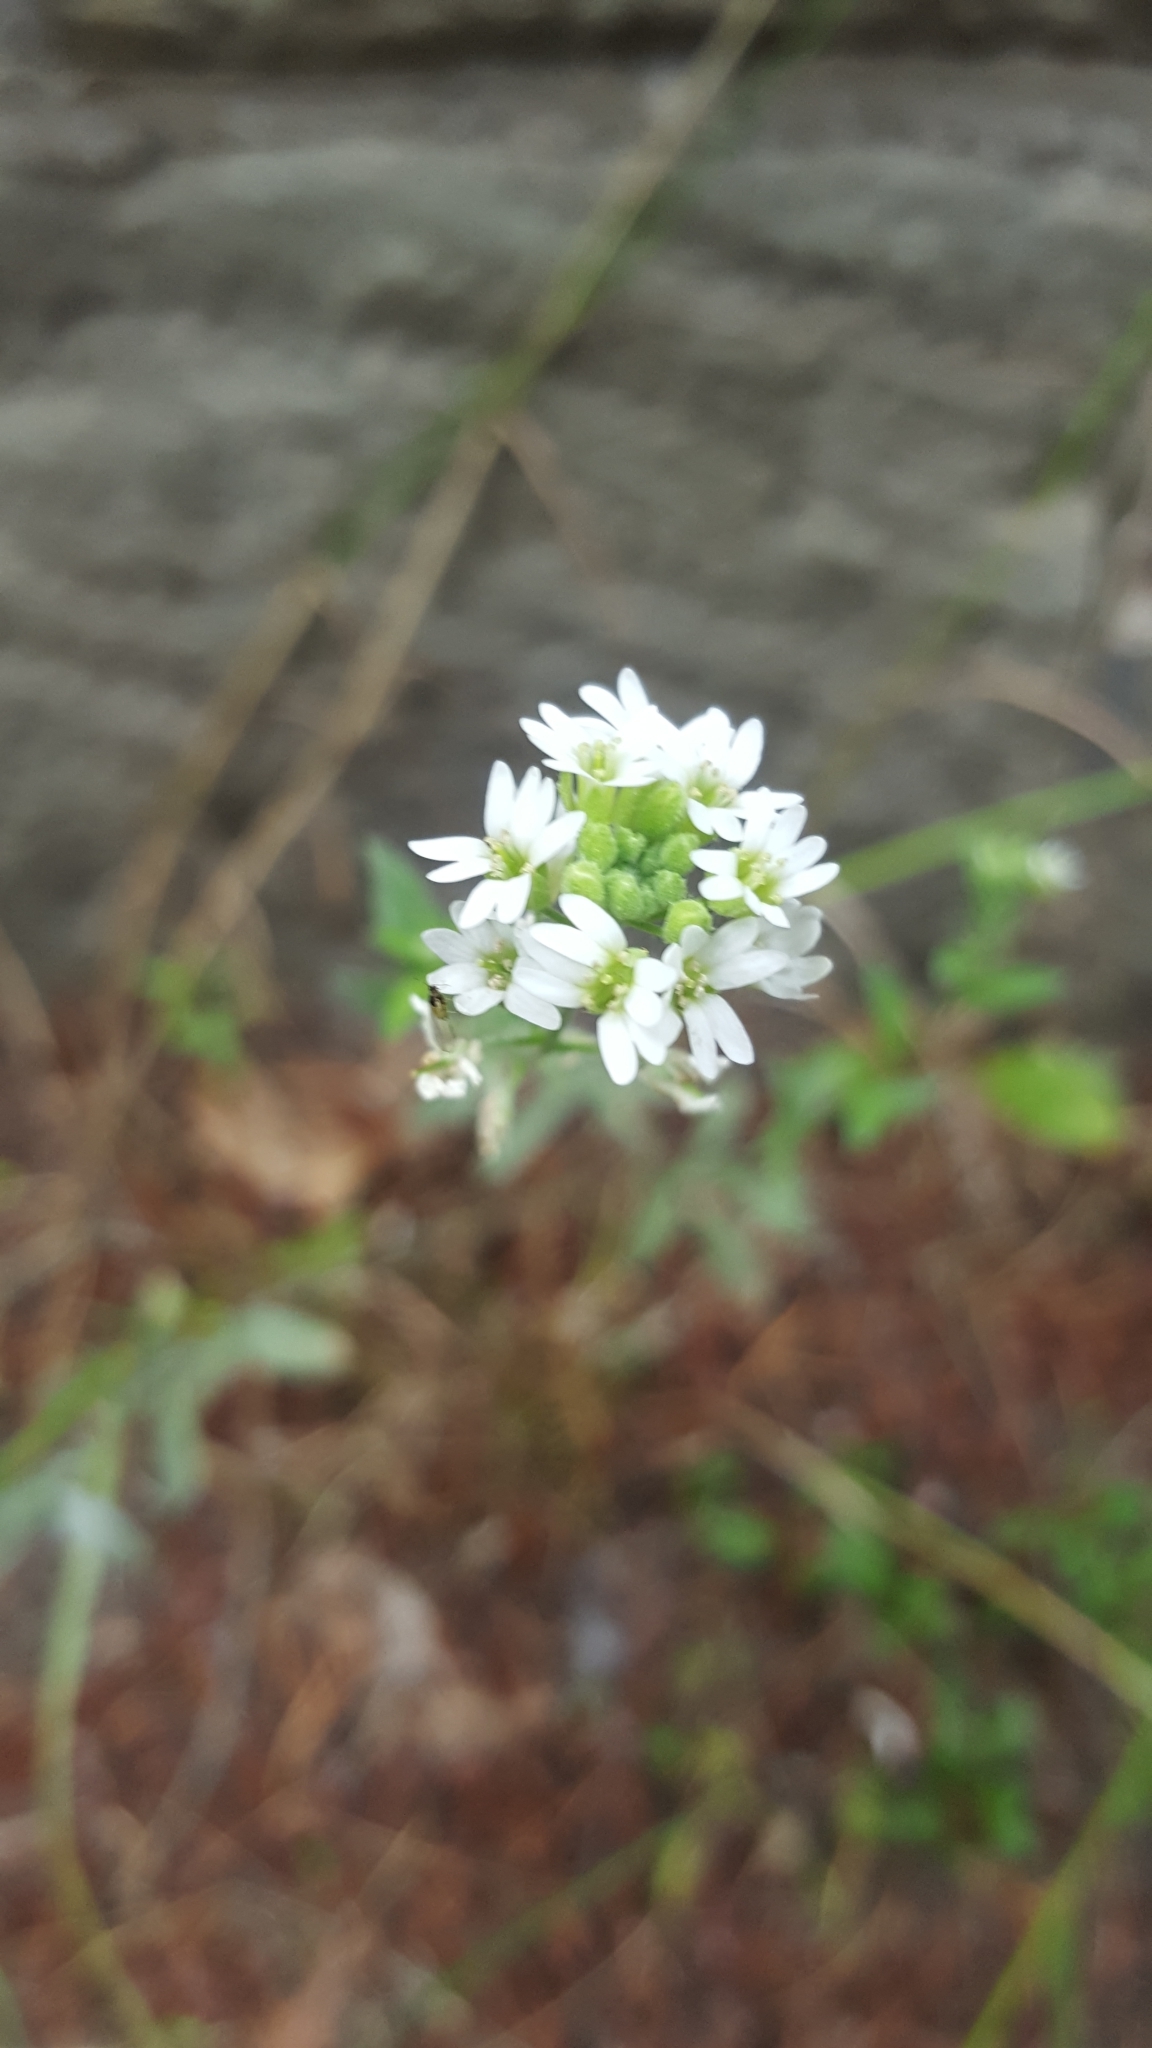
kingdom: Plantae
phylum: Tracheophyta
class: Magnoliopsida
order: Brassicales
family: Brassicaceae
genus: Berteroa
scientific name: Berteroa incana
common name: Hoary alison
